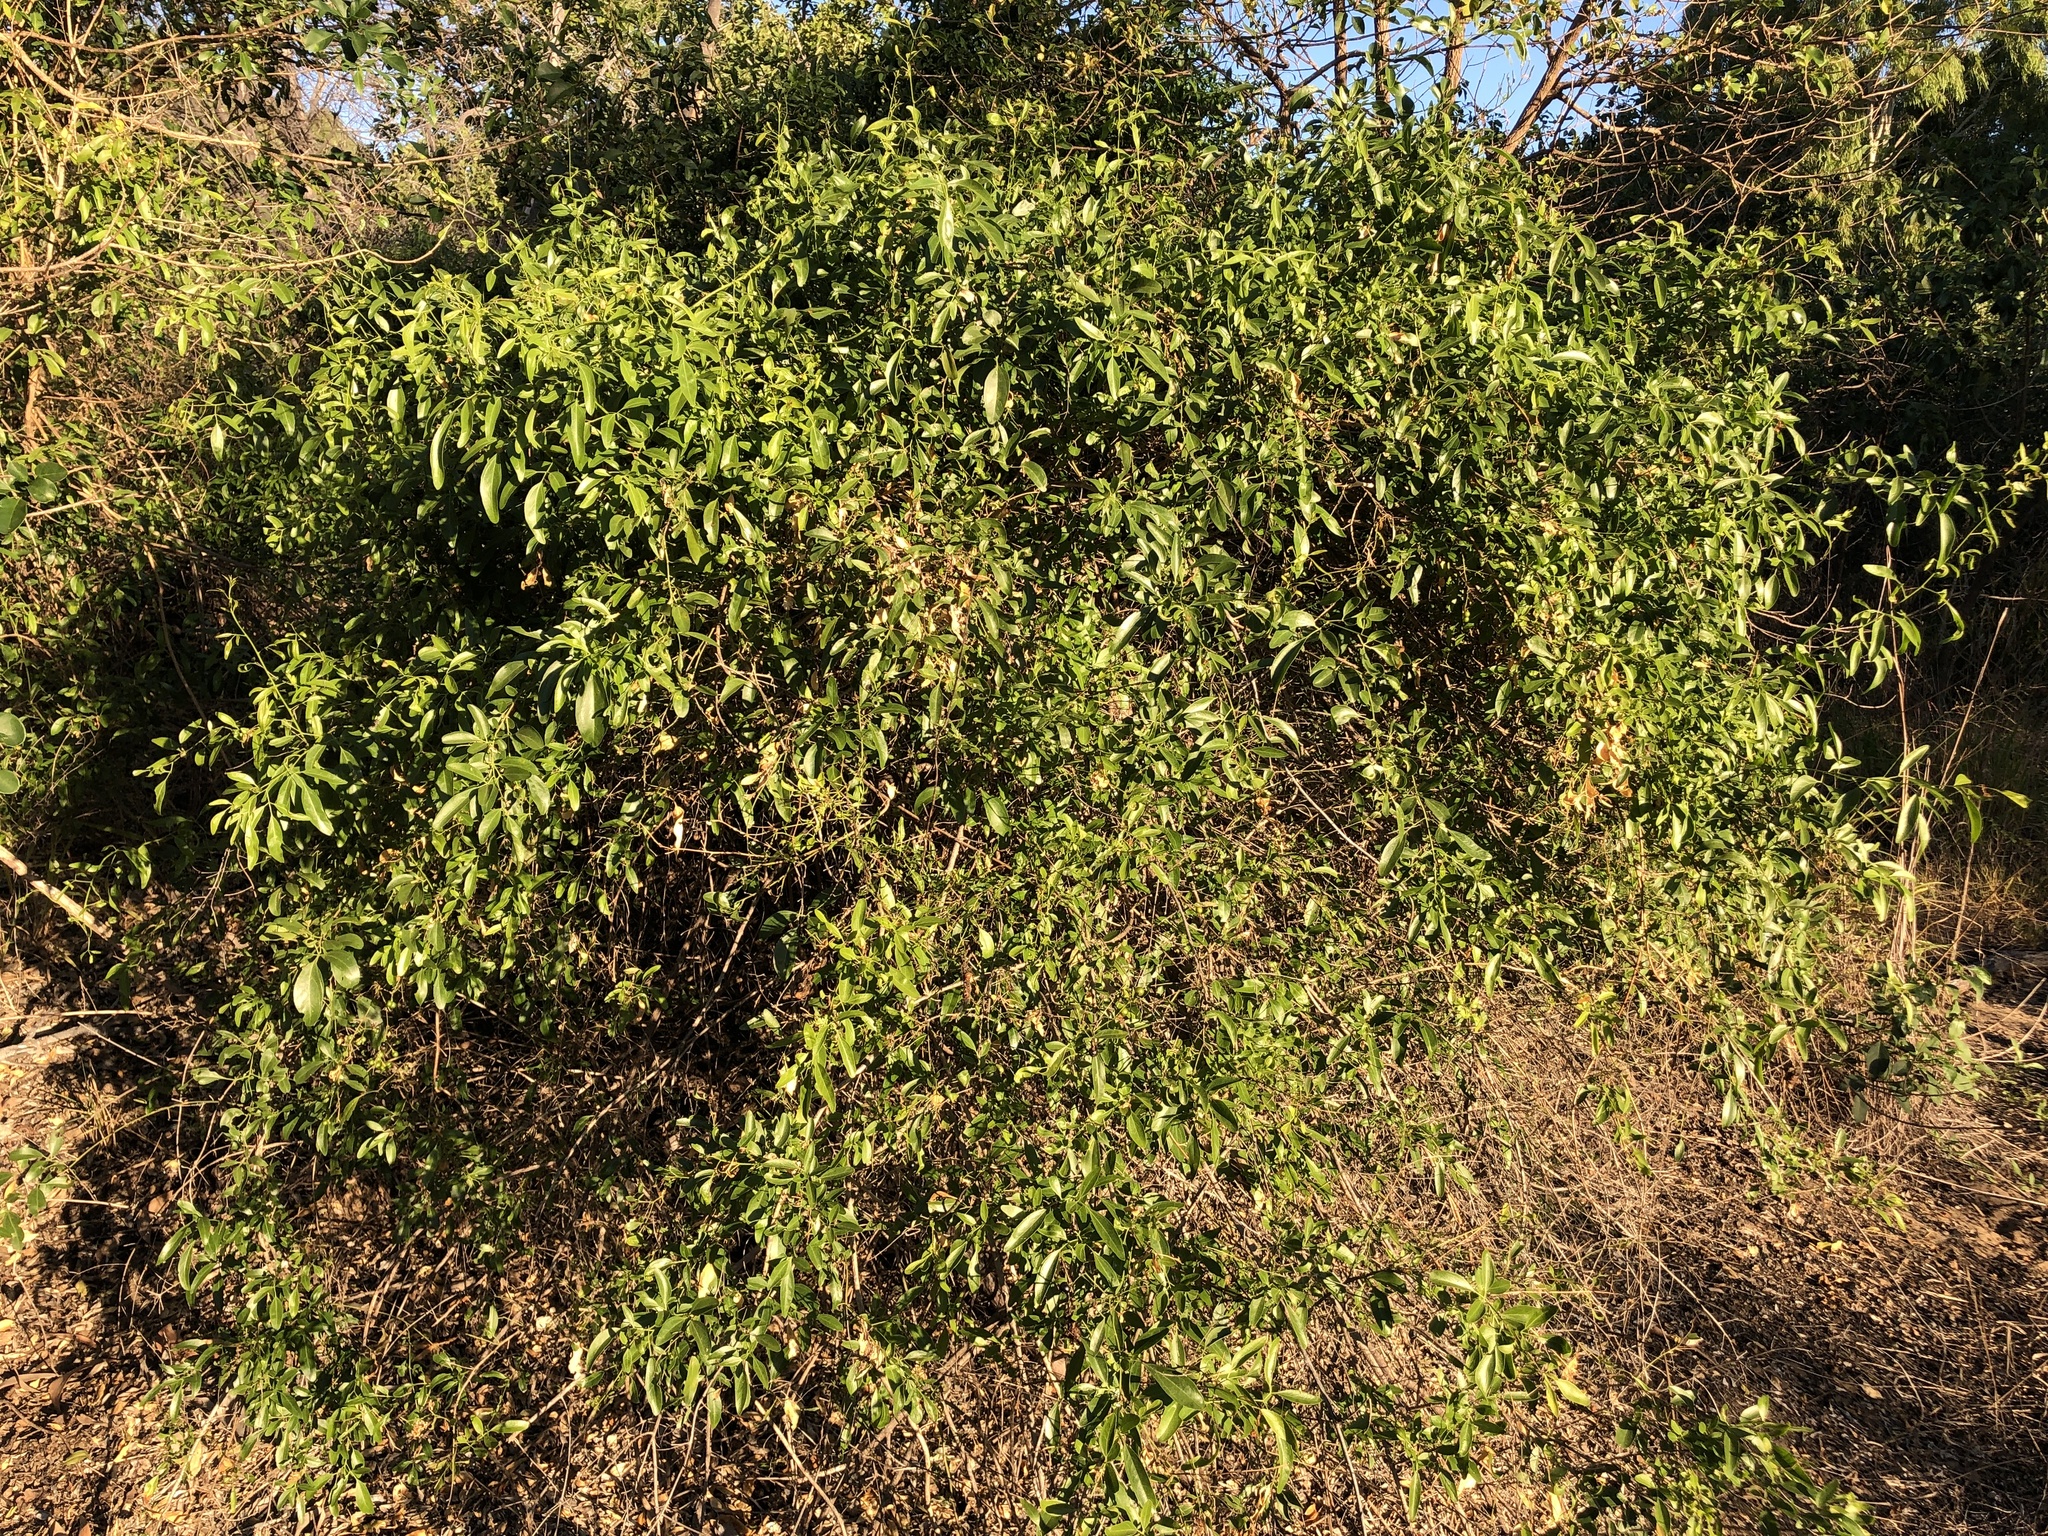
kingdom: Plantae
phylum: Tracheophyta
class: Magnoliopsida
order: Lamiales
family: Oleaceae
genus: Jasminum
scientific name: Jasminum didymum
